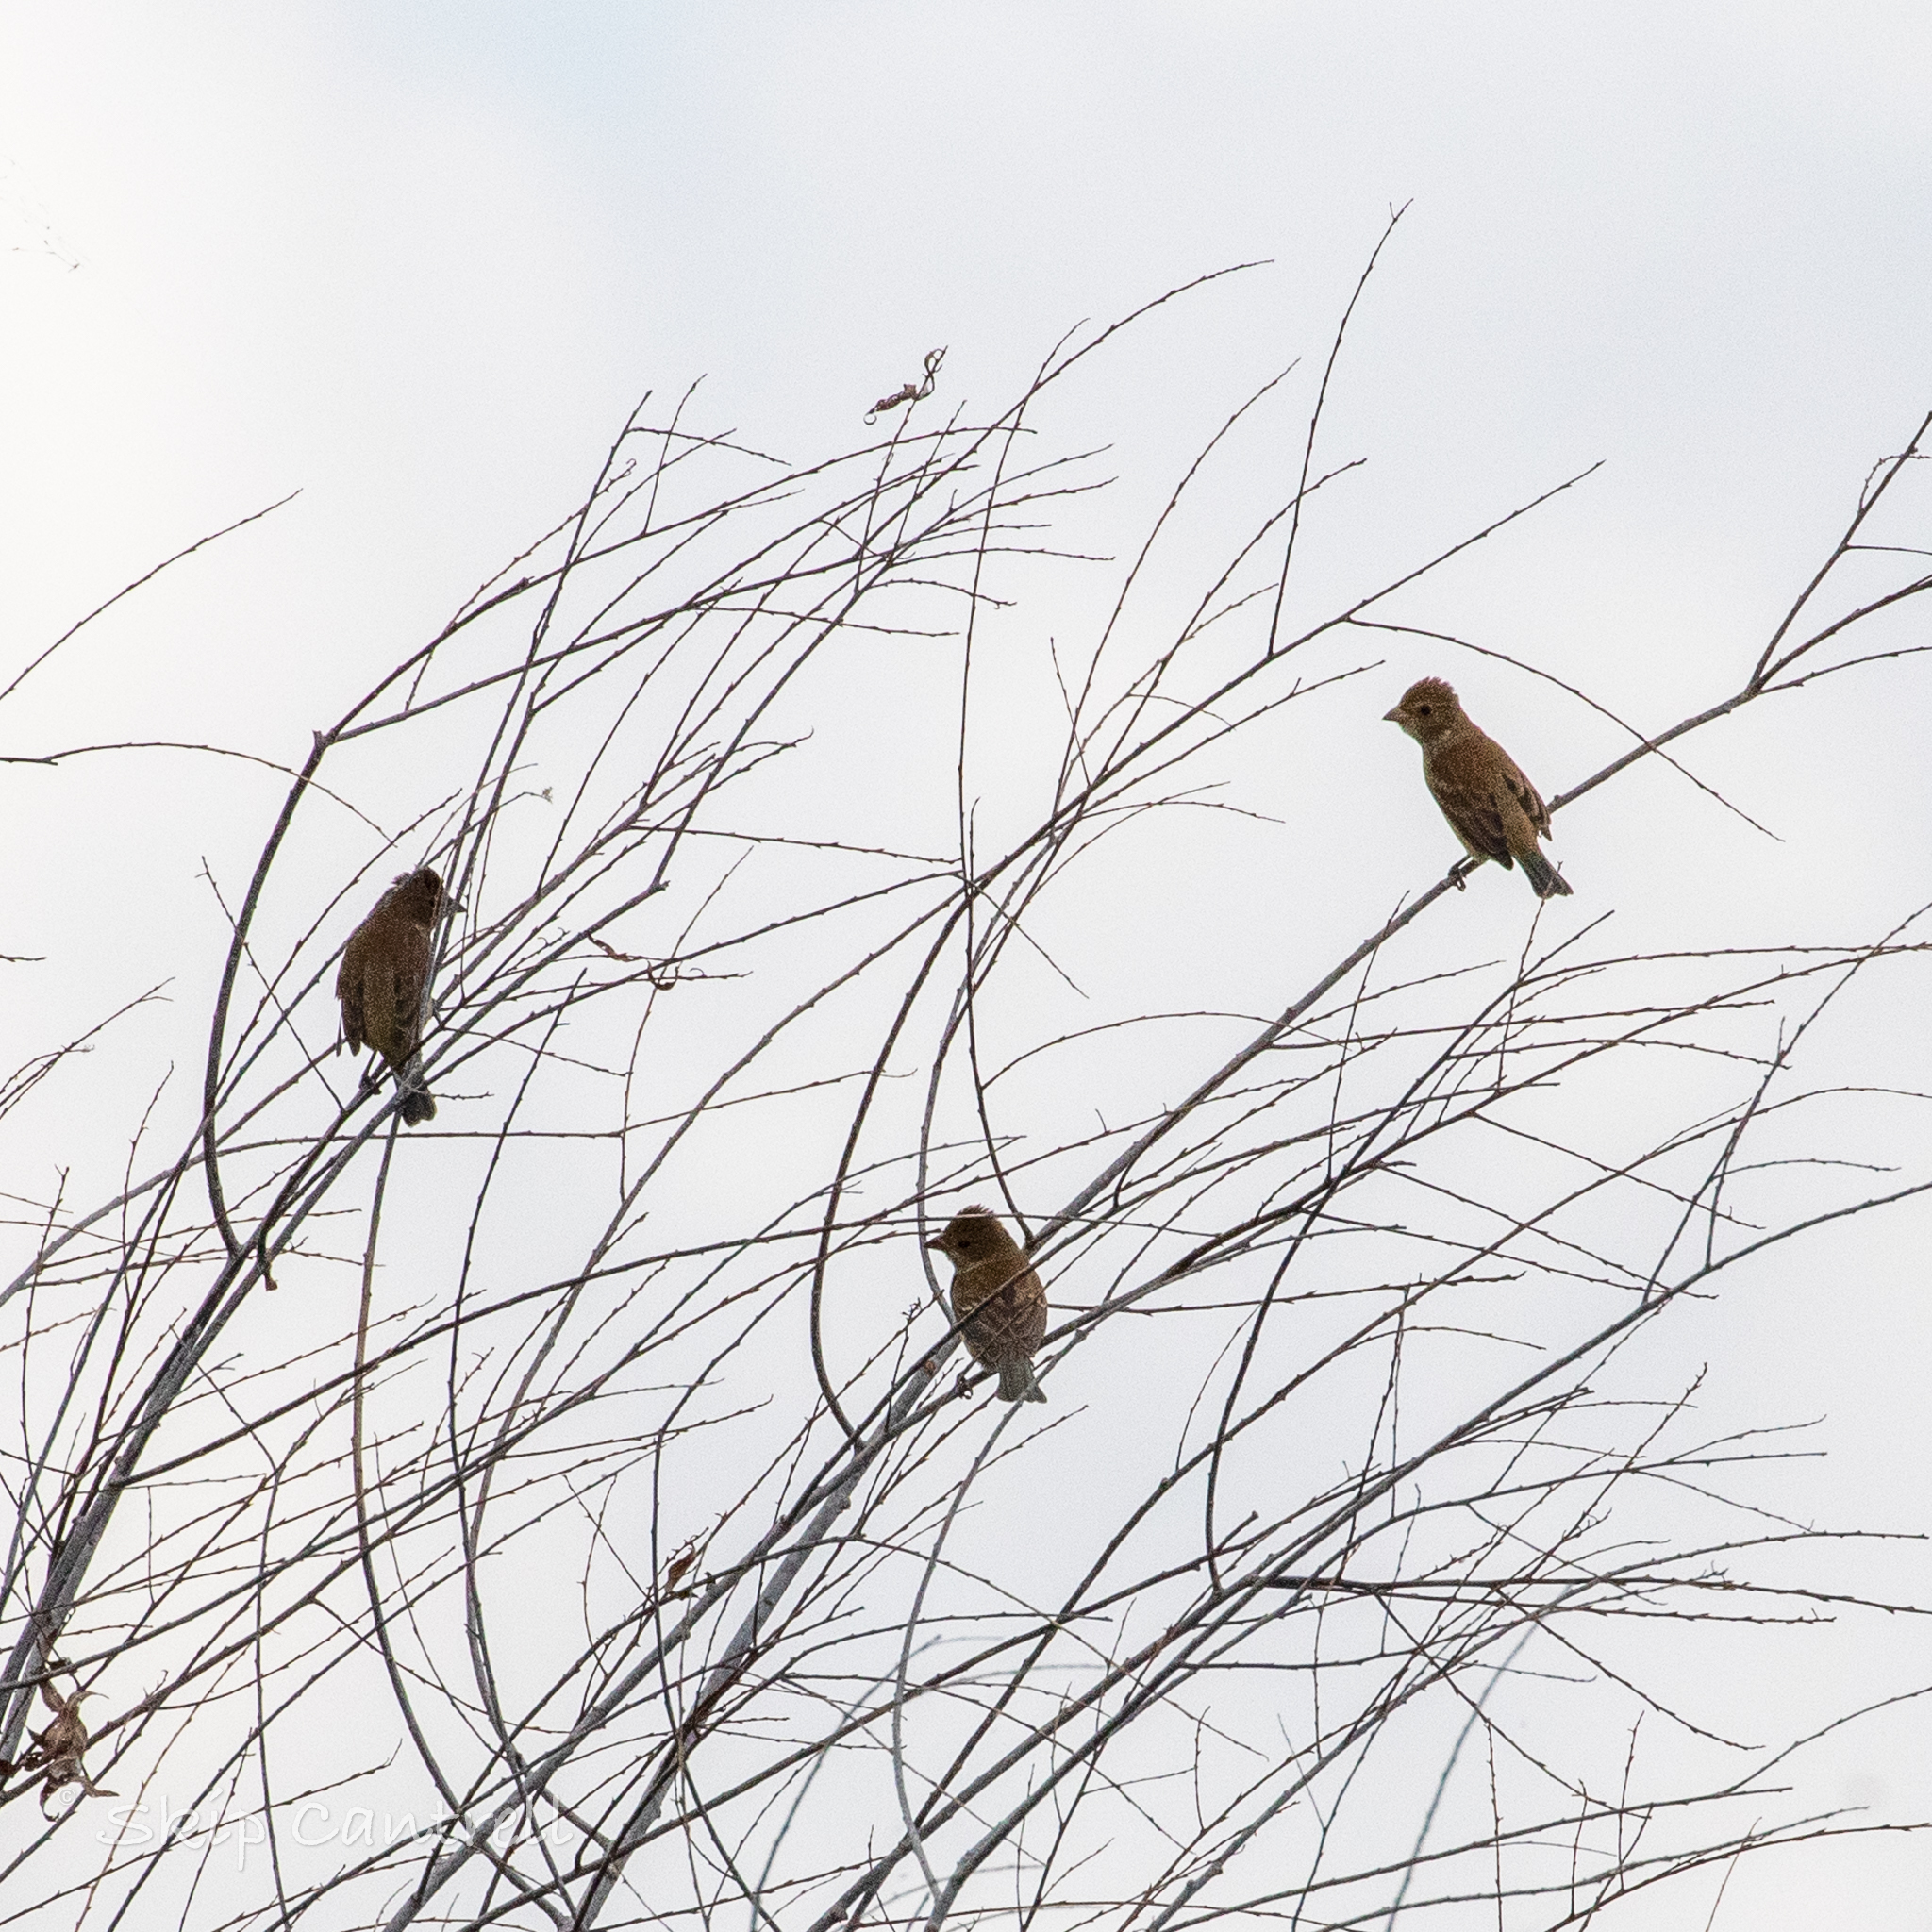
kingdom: Animalia
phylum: Chordata
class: Aves
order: Passeriformes
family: Cardinalidae
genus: Passerina
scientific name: Passerina cyanea
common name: Indigo bunting
